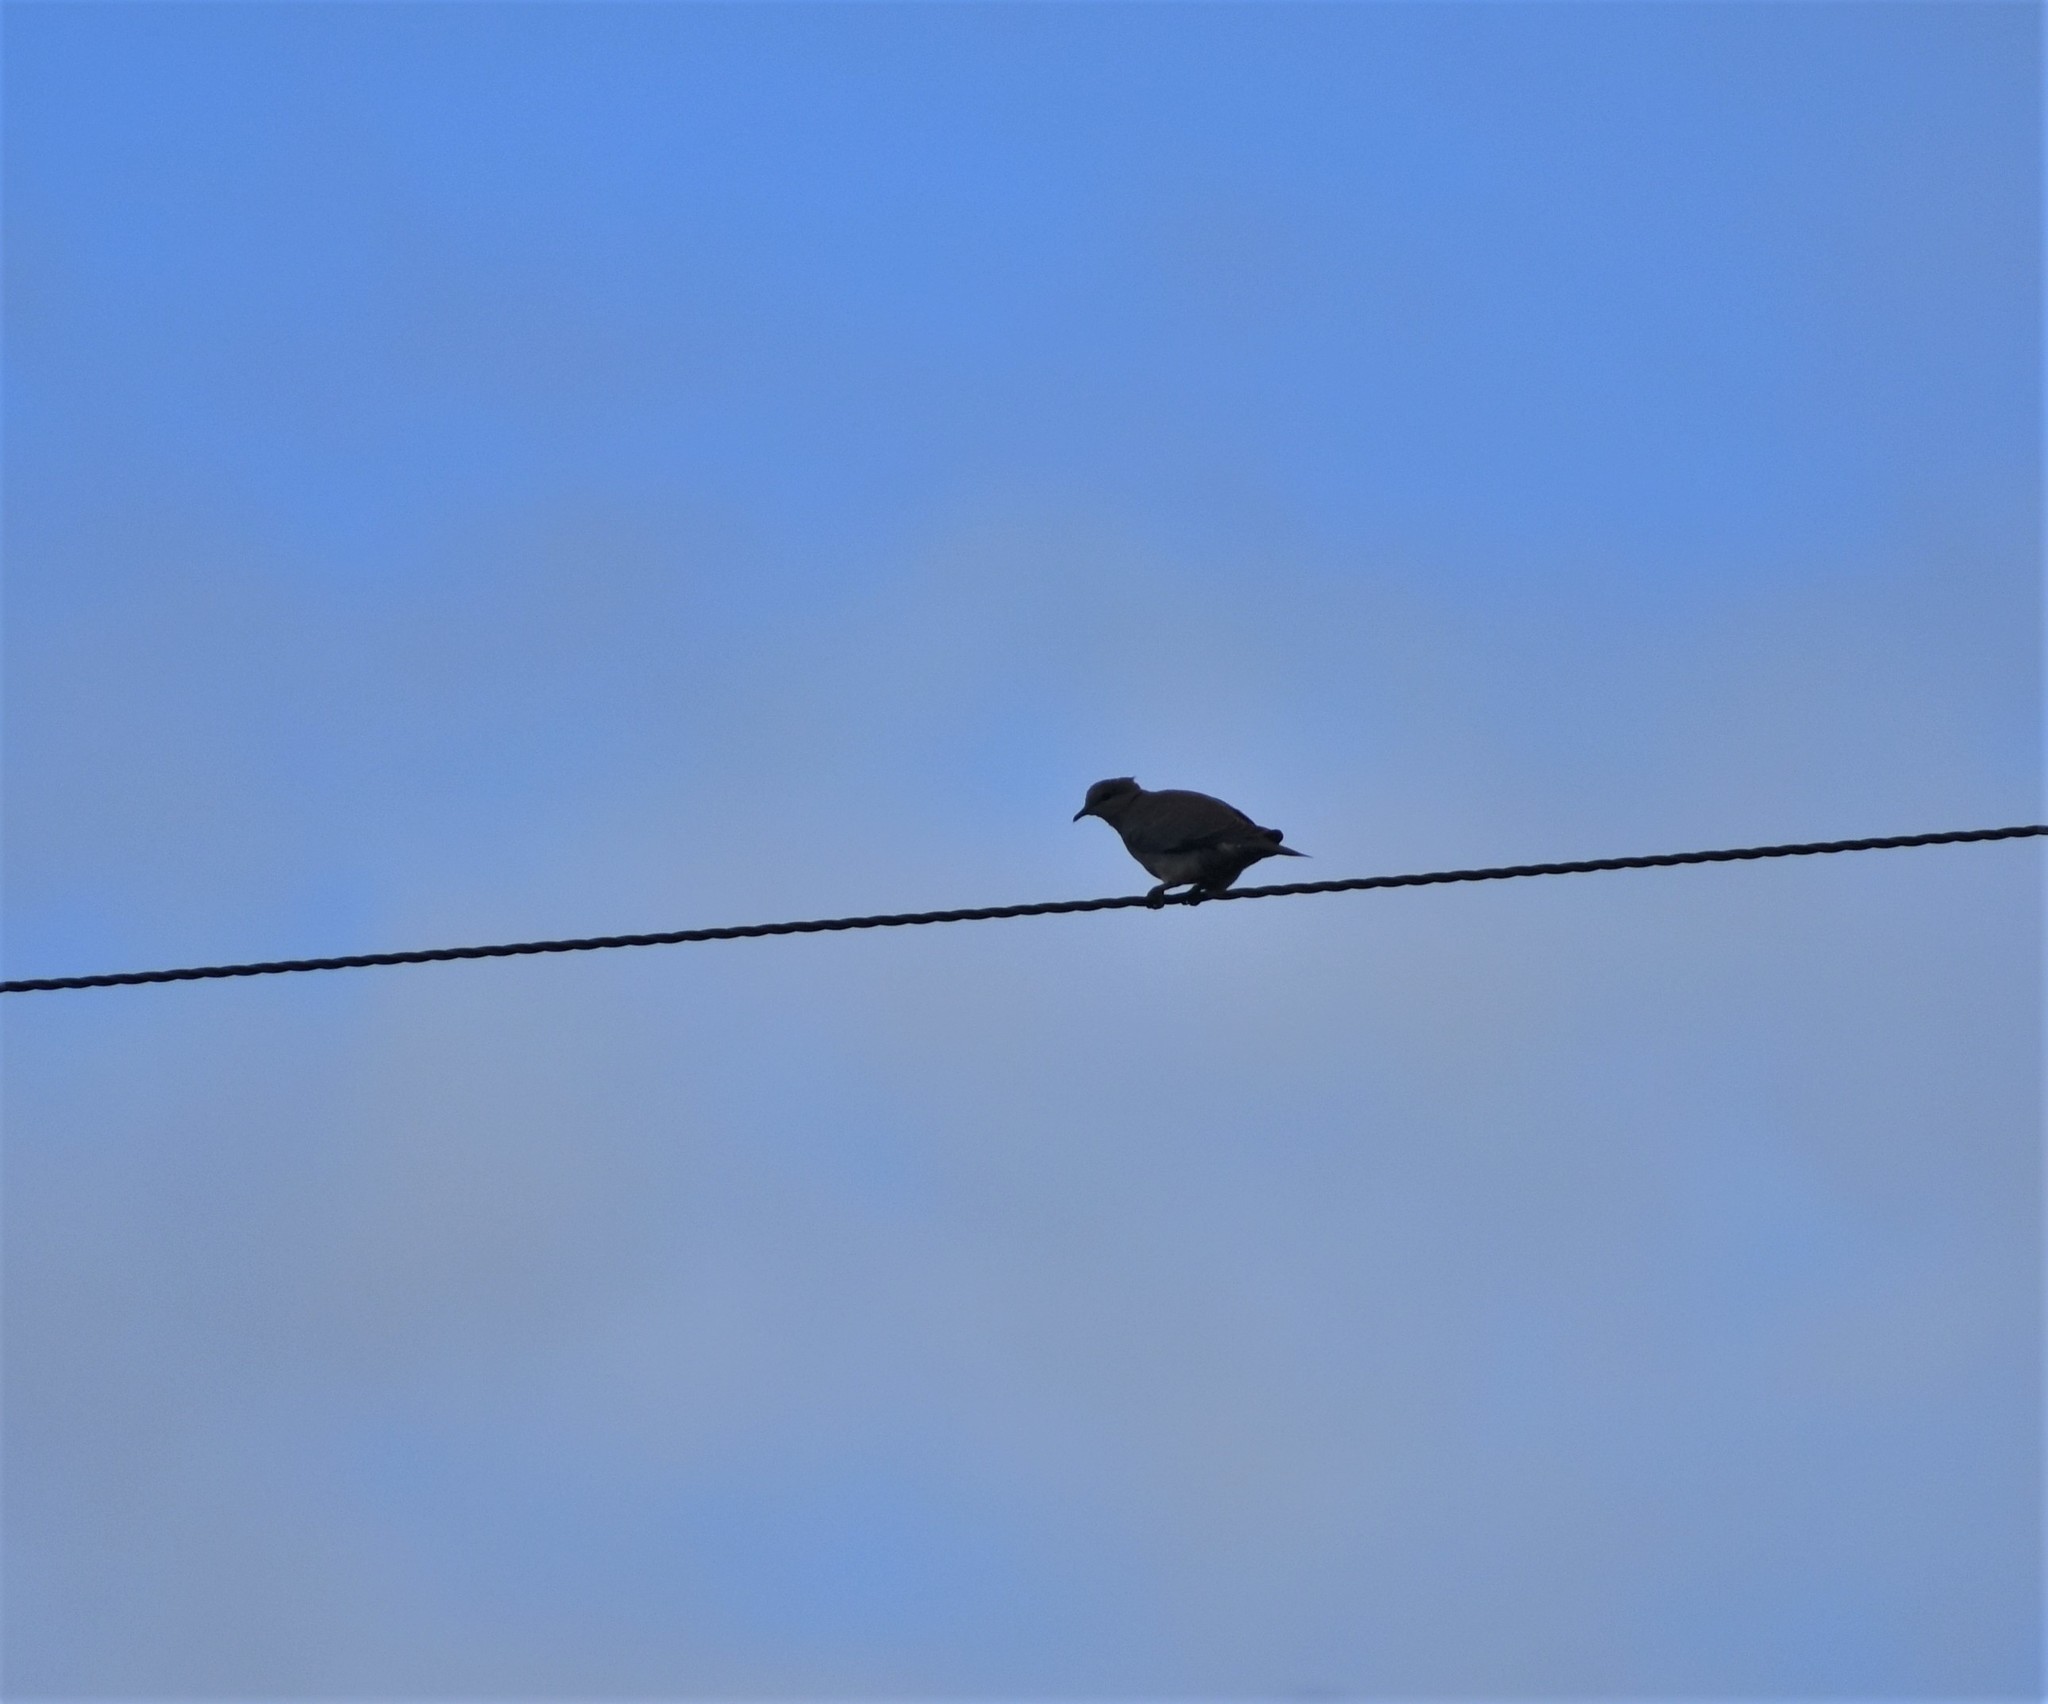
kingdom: Animalia
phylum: Chordata
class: Aves
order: Columbiformes
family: Columbidae
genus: Streptopelia
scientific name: Streptopelia capicola
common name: Ring-necked dove
